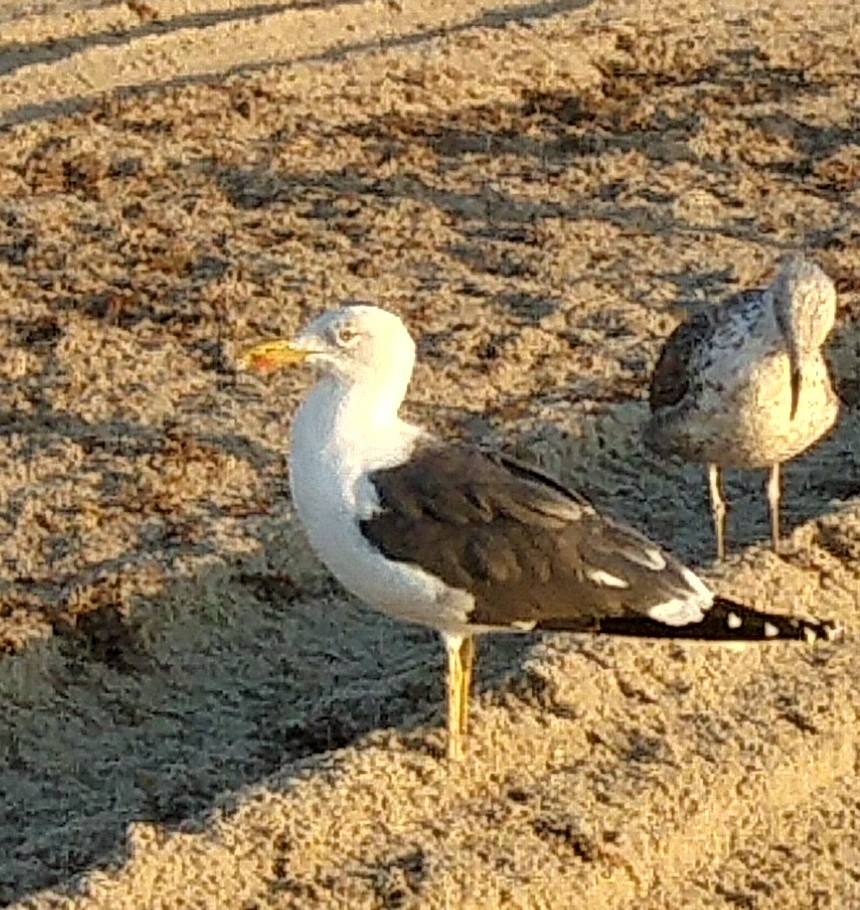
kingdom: Animalia
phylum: Chordata
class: Aves
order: Charadriiformes
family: Laridae
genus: Larus
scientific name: Larus fuscus
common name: Lesser black-backed gull
